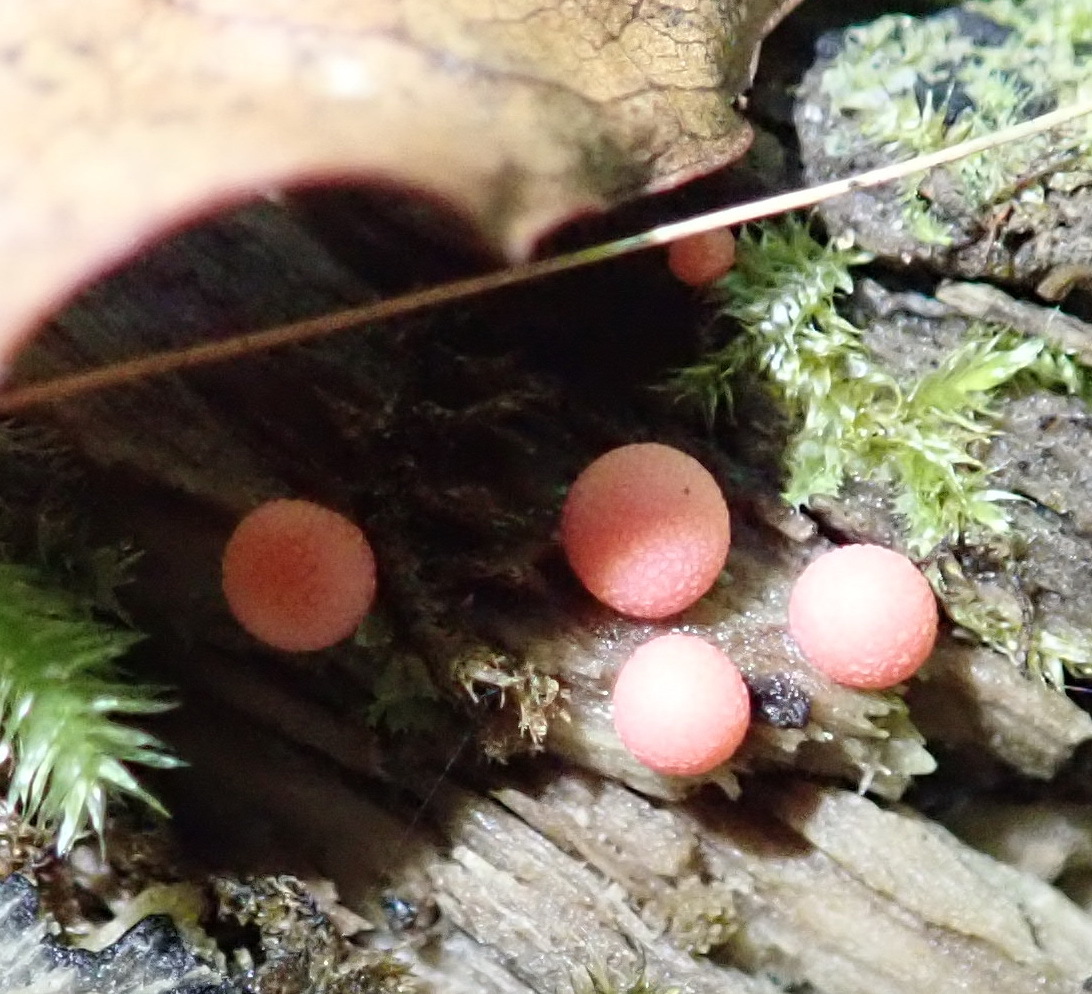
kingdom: Protozoa
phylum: Mycetozoa
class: Myxomycetes
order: Cribrariales
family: Tubiferaceae
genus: Lycogala
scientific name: Lycogala epidendrum
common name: Wolf's milk
